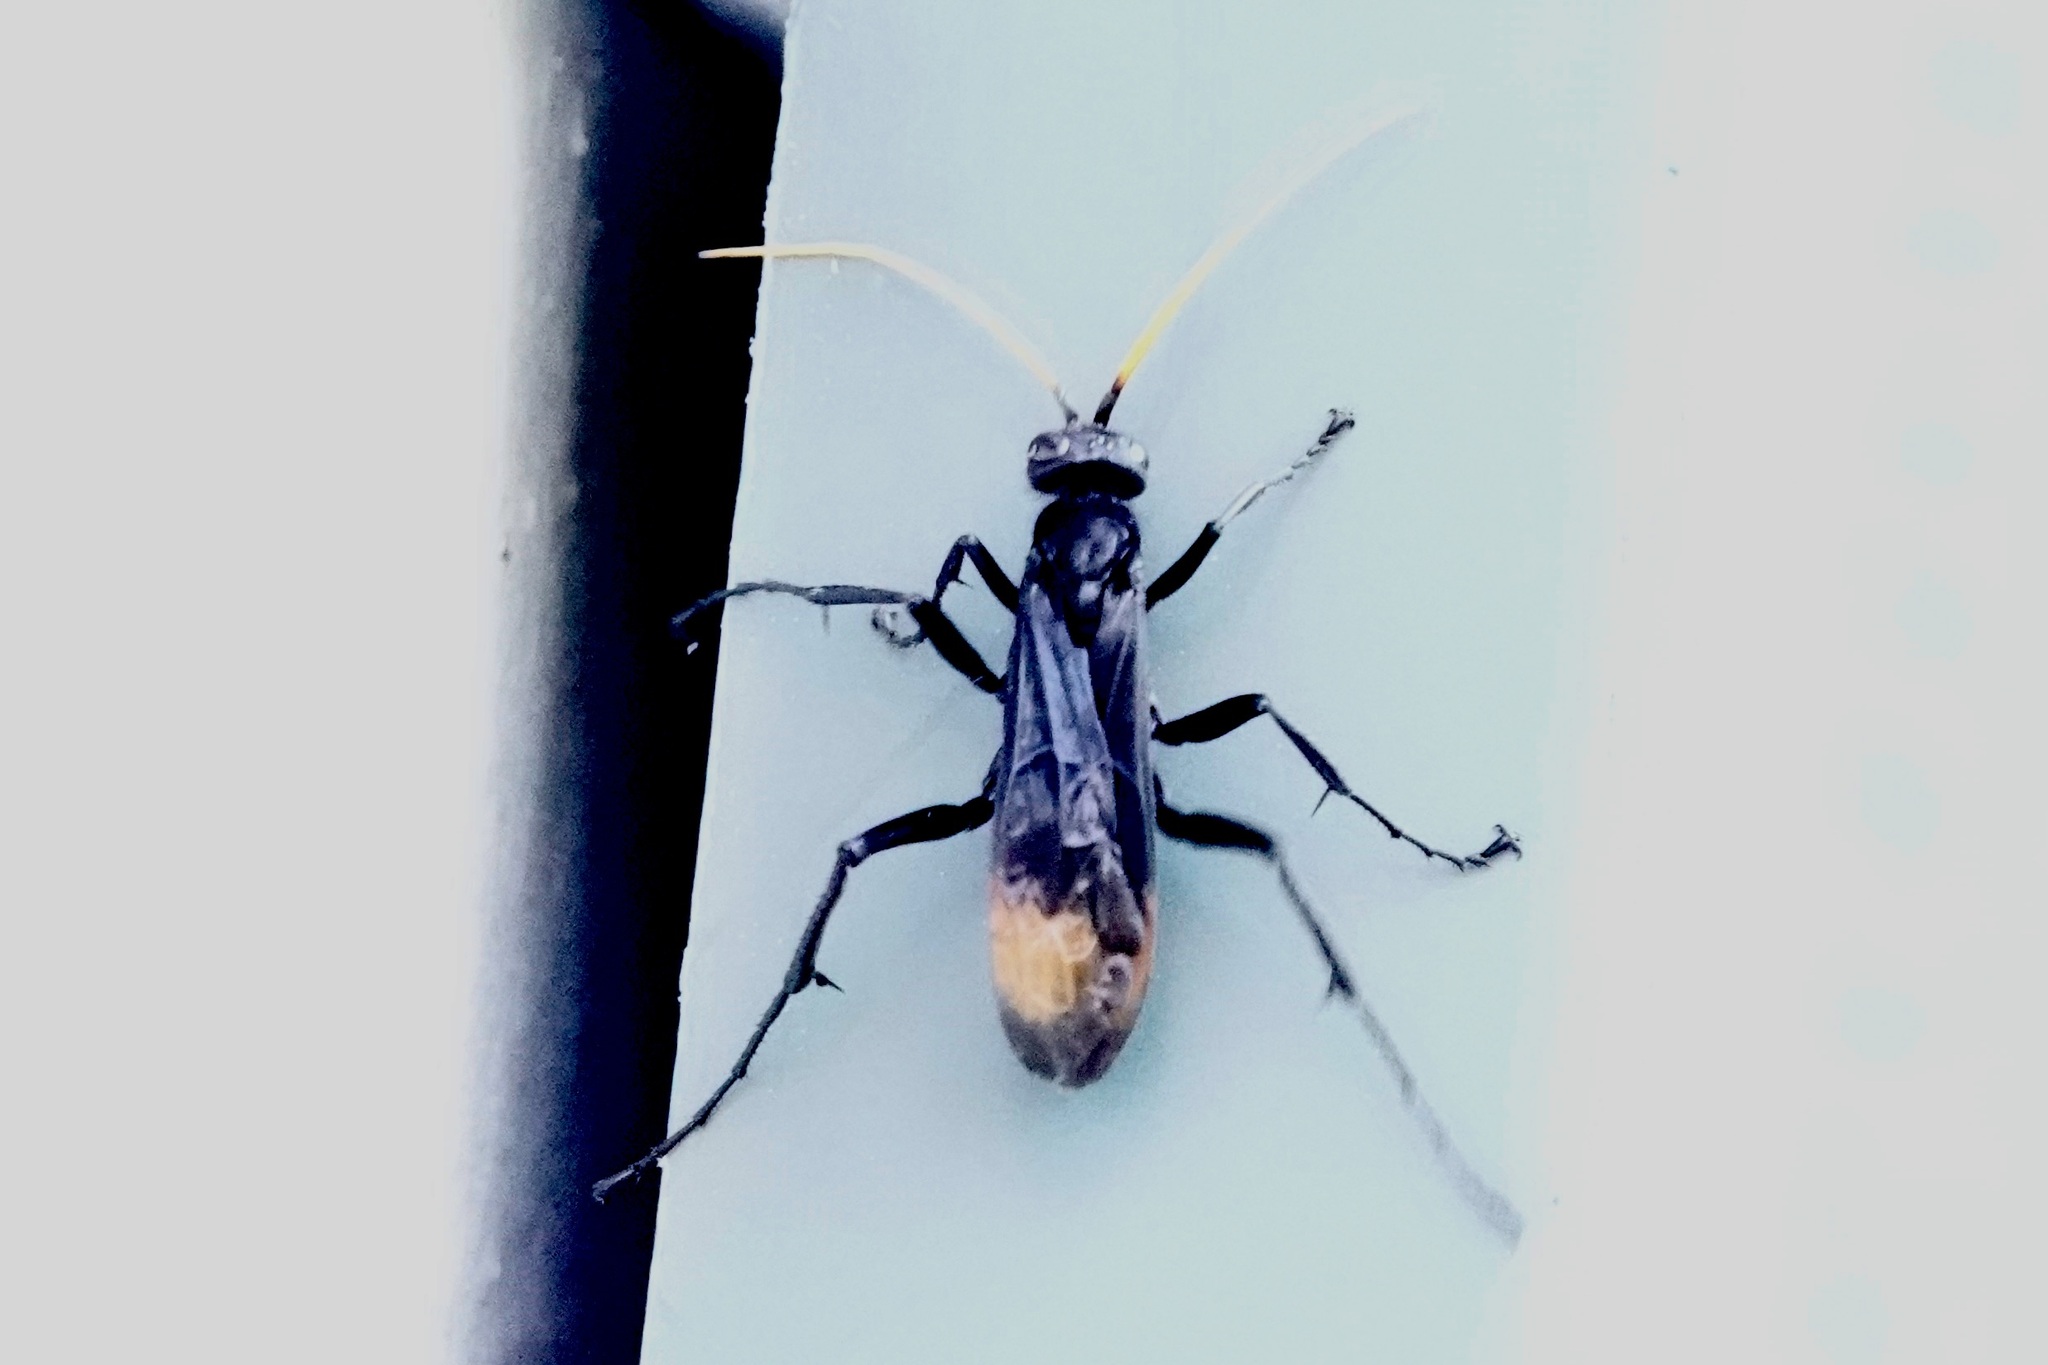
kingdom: Animalia
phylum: Arthropoda
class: Insecta
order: Hymenoptera
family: Pompilidae
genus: Entypus
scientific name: Entypus unifasciatus
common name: Eastern tawny-horned spider wasp
